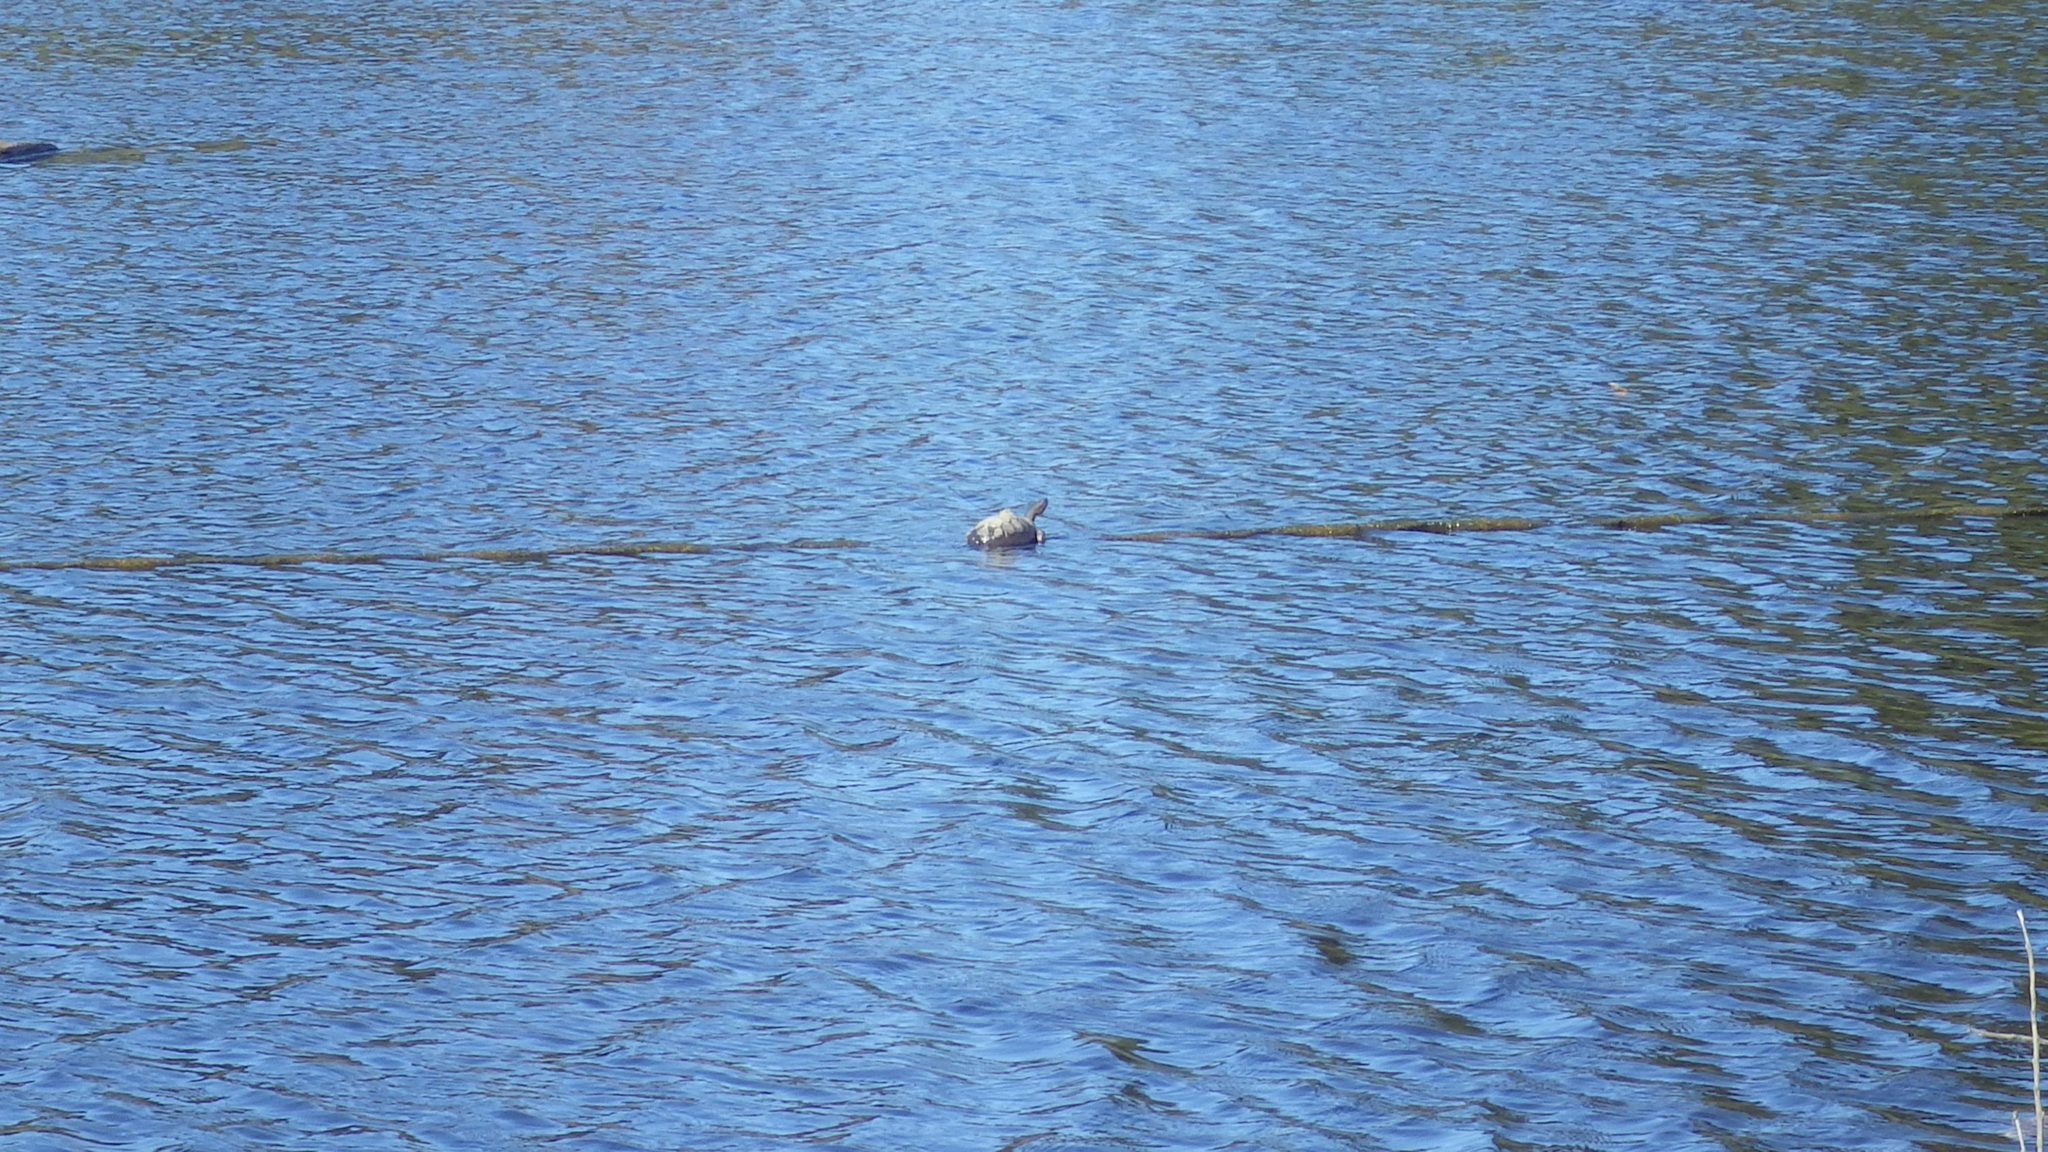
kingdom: Animalia
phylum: Chordata
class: Testudines
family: Emydidae
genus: Actinemys
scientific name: Actinemys marmorata
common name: Western pond turtle
